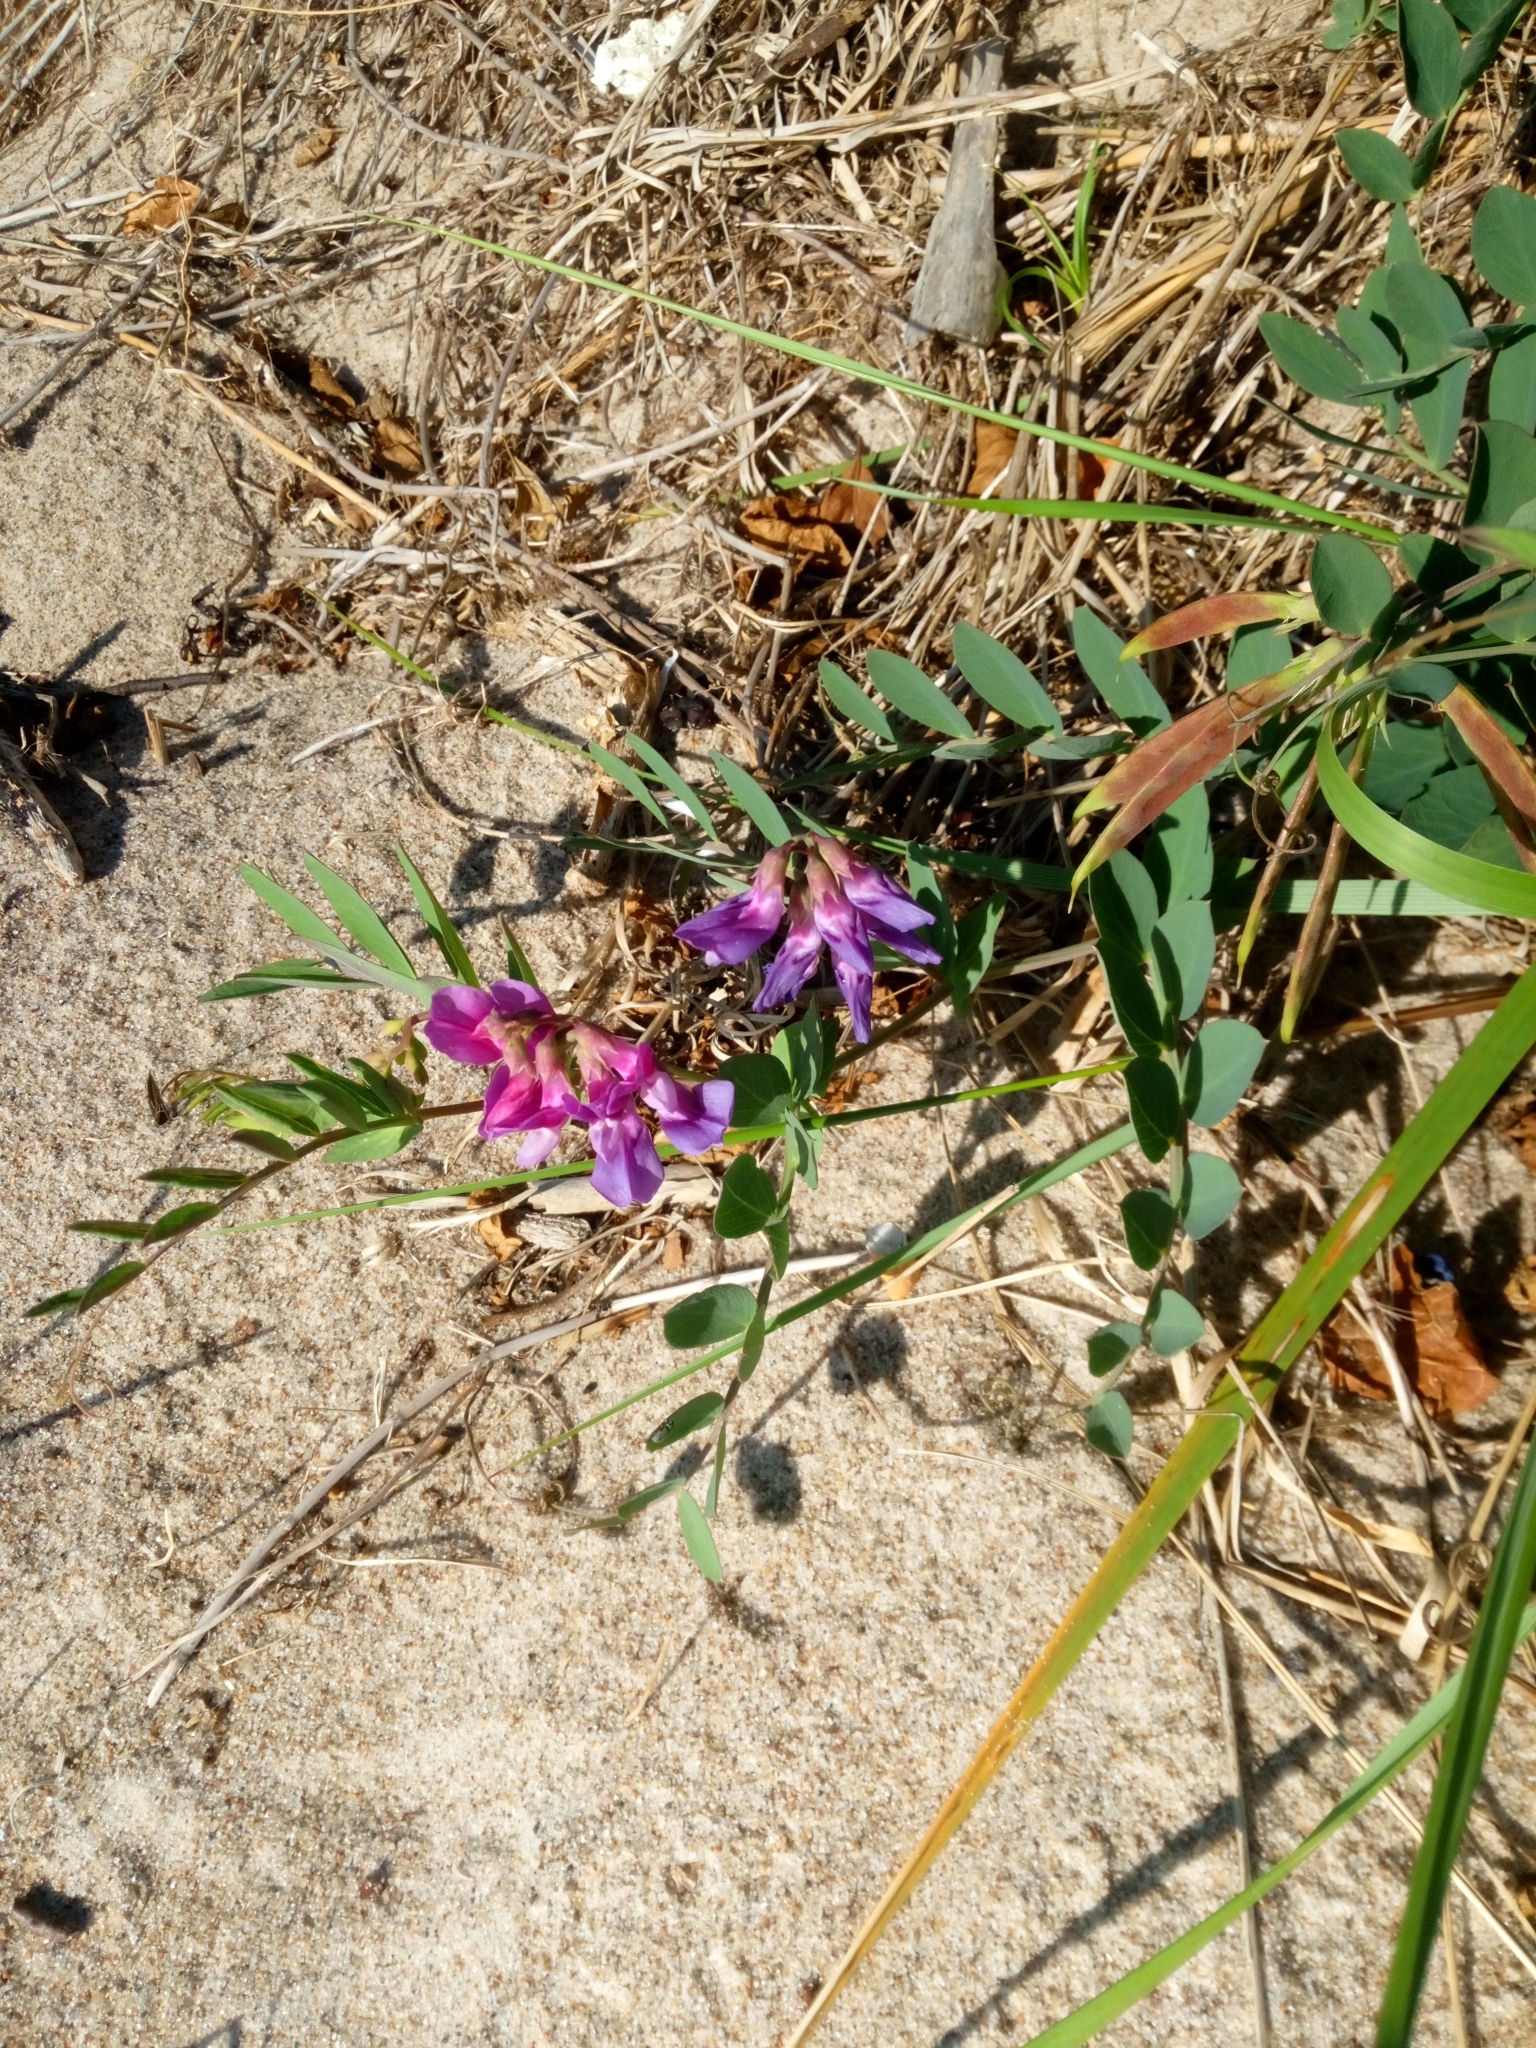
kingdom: Plantae
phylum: Tracheophyta
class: Magnoliopsida
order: Fabales
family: Fabaceae
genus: Lathyrus
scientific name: Lathyrus japonicus
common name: Sea pea
